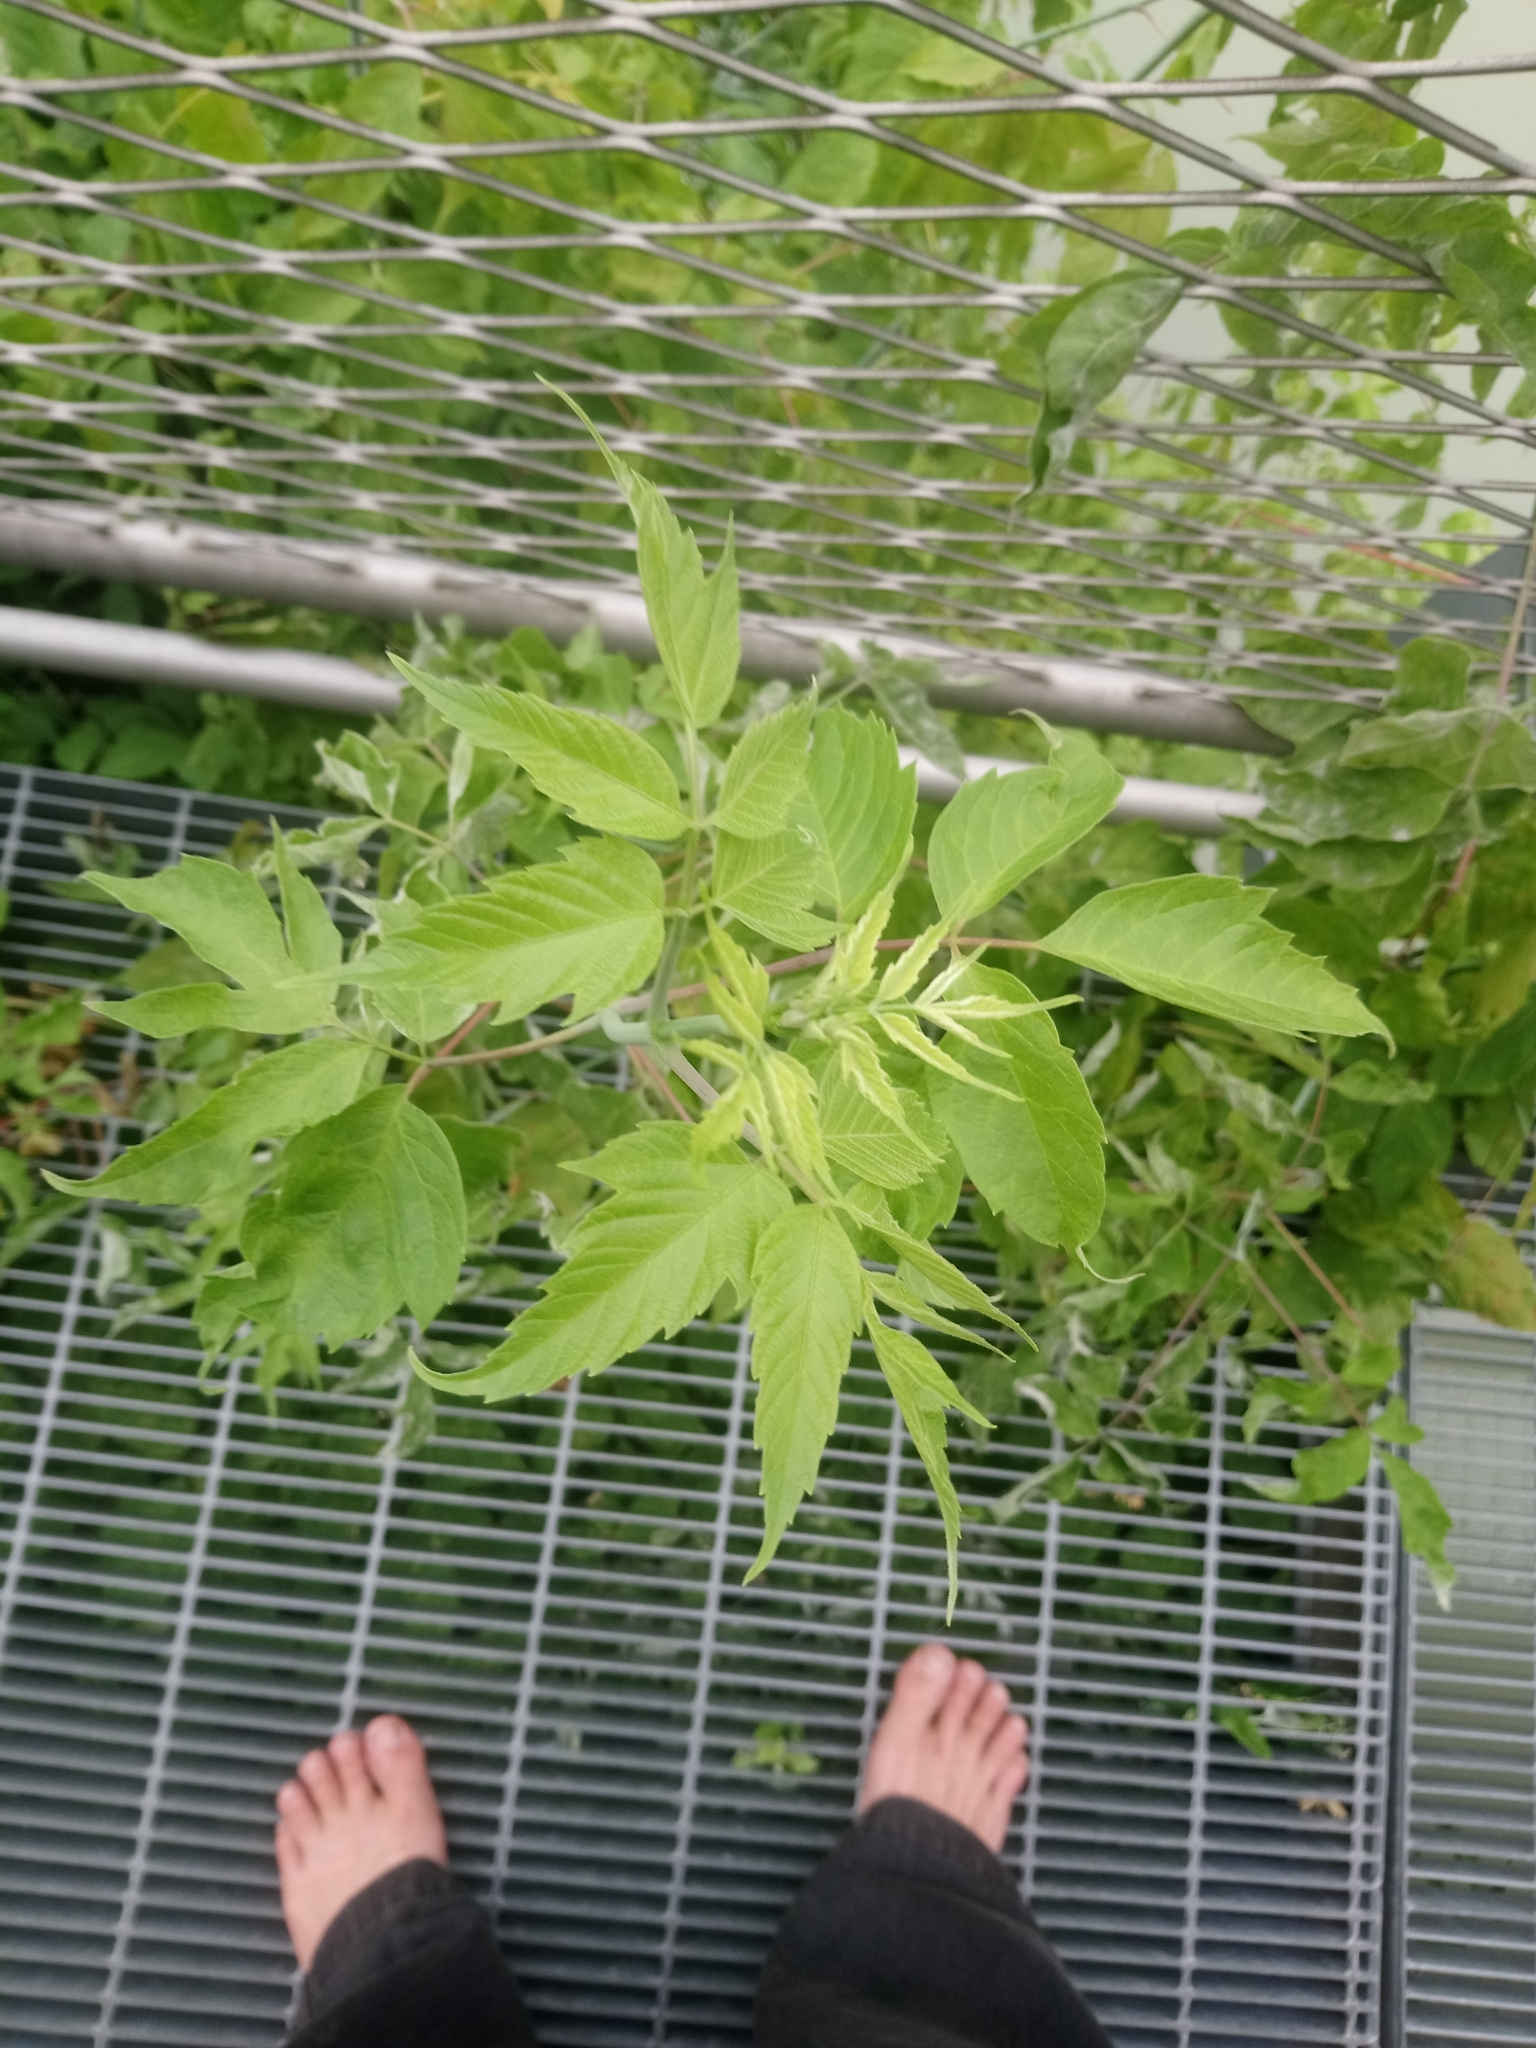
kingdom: Plantae
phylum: Tracheophyta
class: Magnoliopsida
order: Sapindales
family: Sapindaceae
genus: Acer
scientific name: Acer negundo
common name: Ashleaf maple
